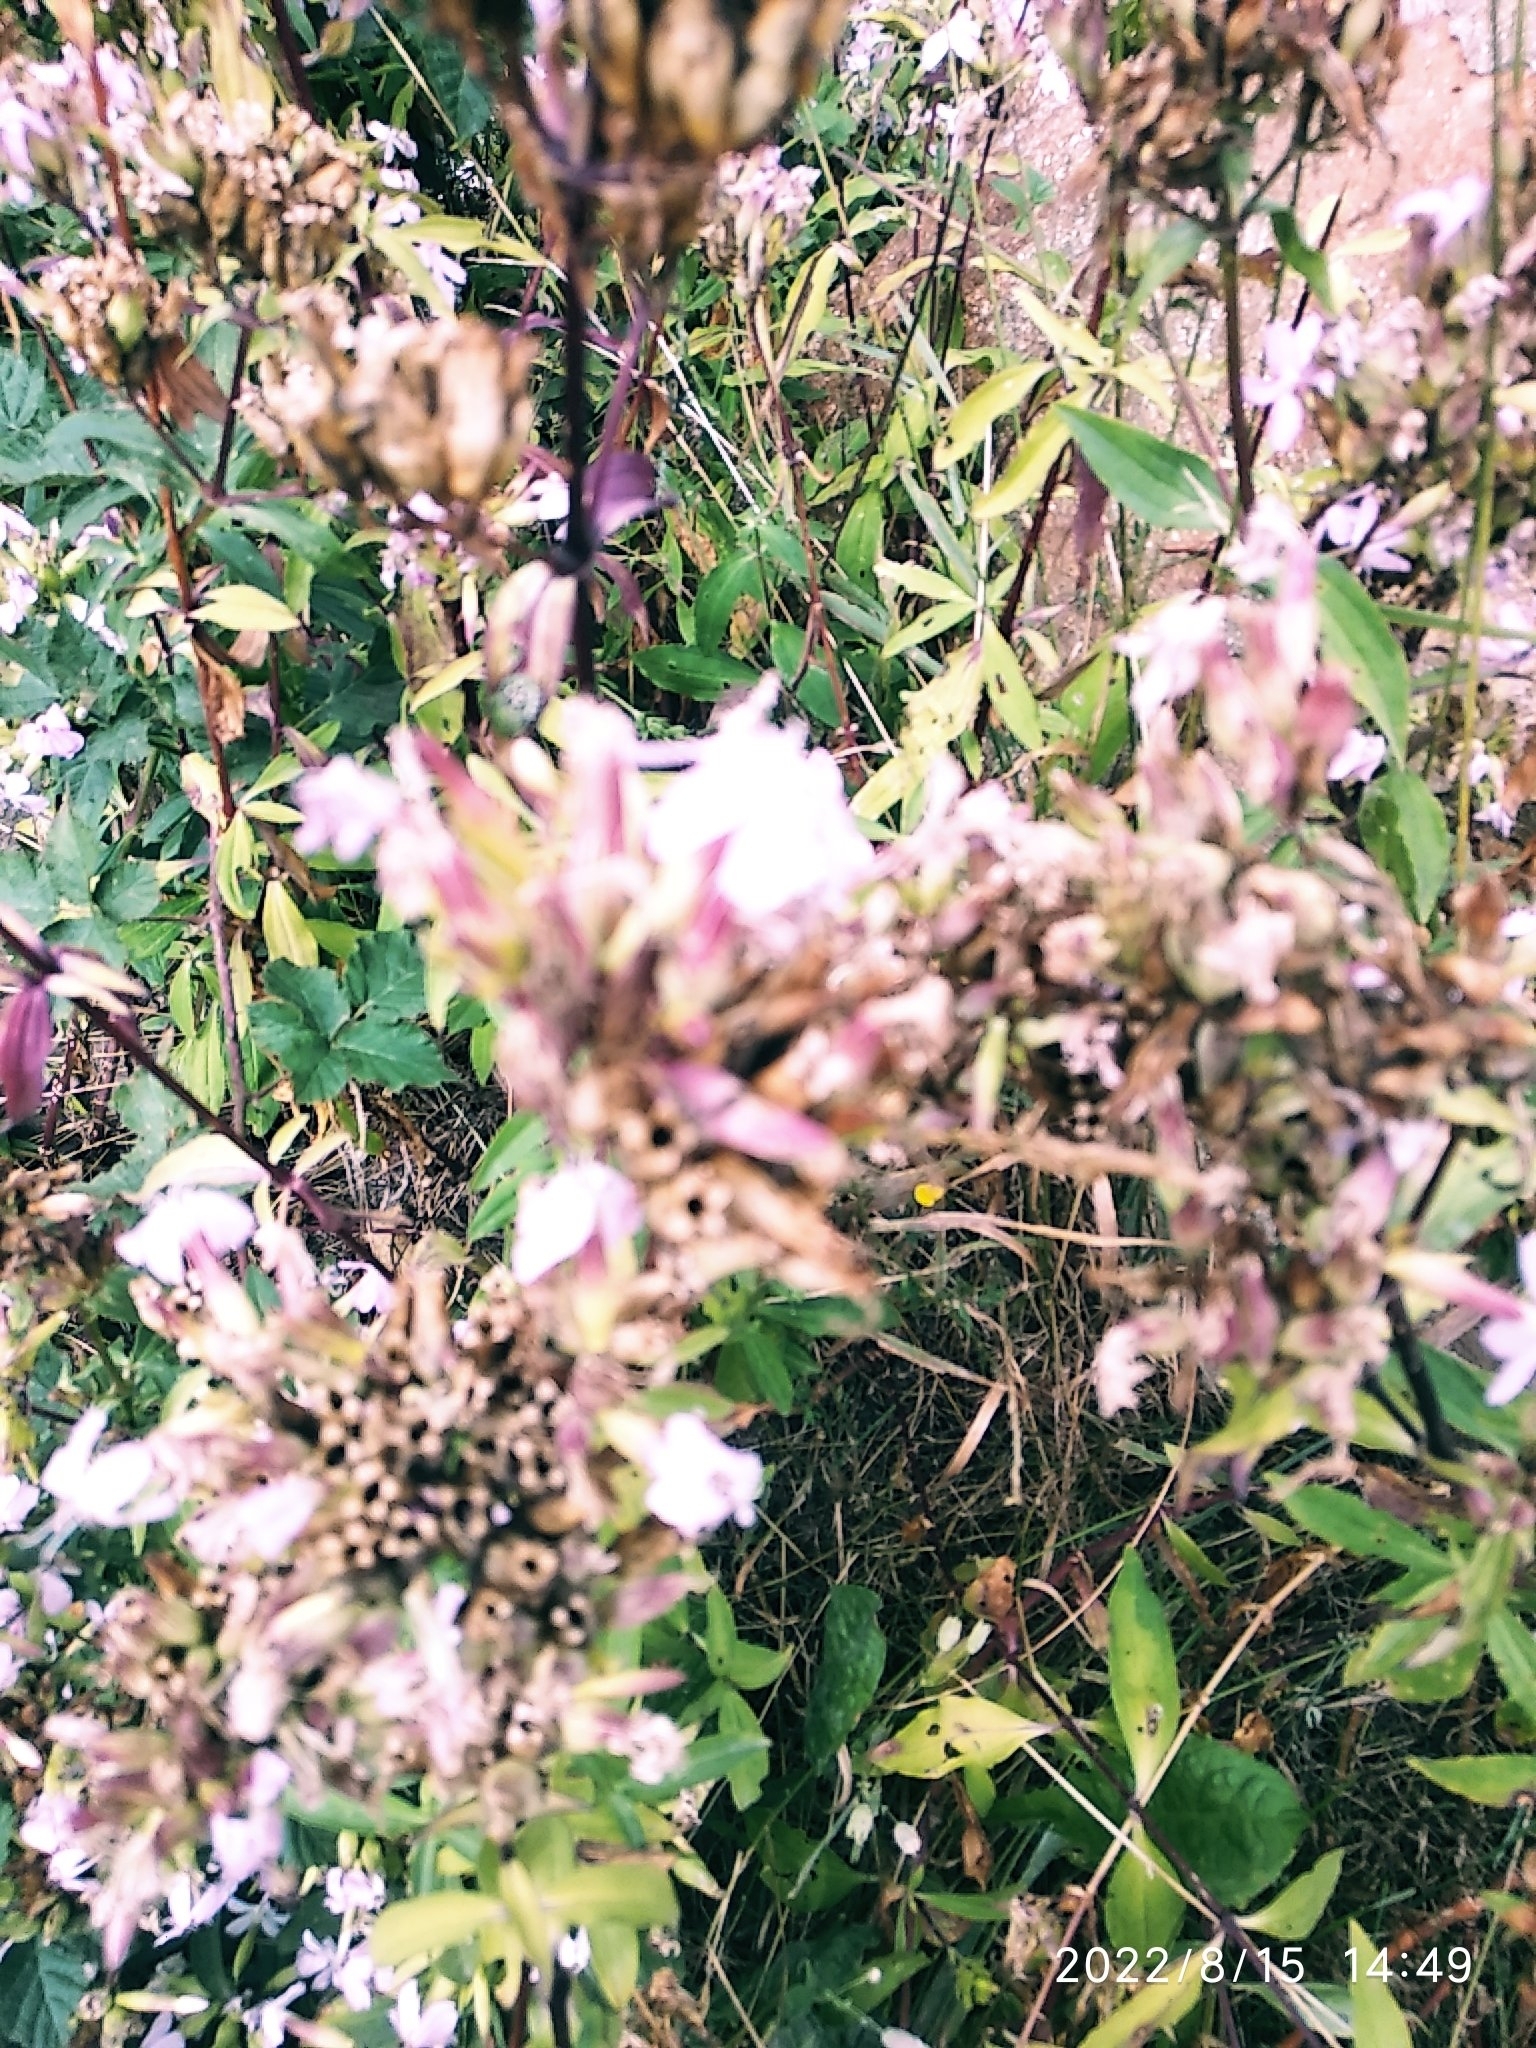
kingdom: Plantae
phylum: Tracheophyta
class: Magnoliopsida
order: Caryophyllales
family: Caryophyllaceae
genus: Saponaria
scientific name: Saponaria officinalis
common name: Soapwort
